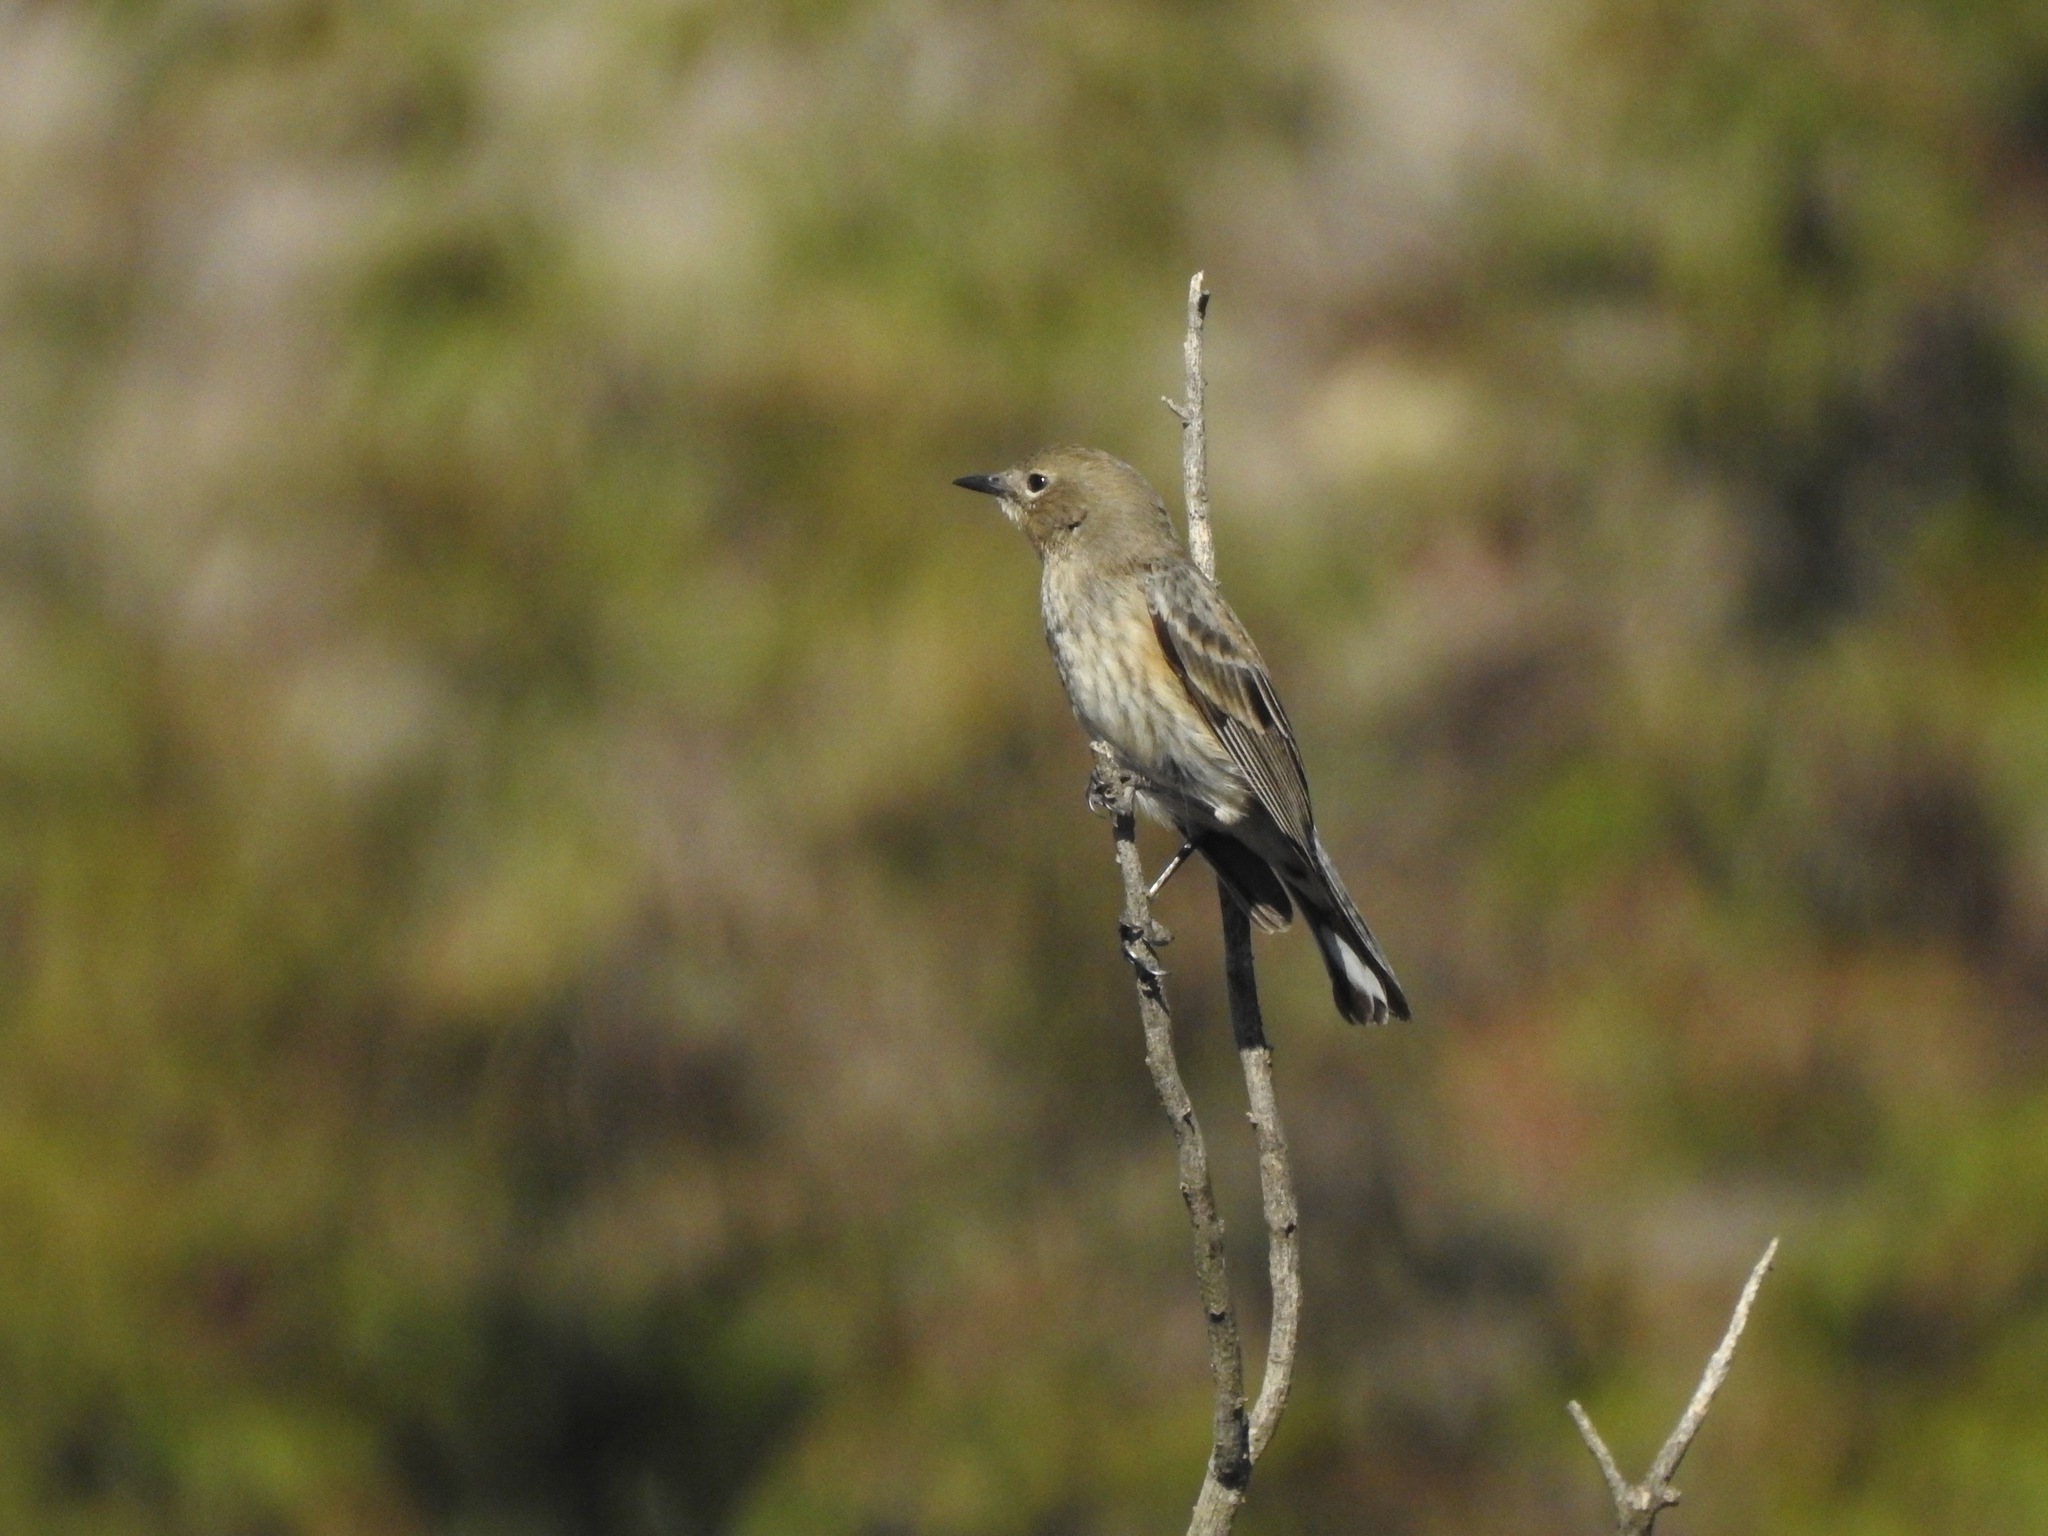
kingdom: Animalia
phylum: Chordata
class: Aves
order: Passeriformes
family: Parulidae
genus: Setophaga
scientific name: Setophaga coronata
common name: Myrtle warbler
